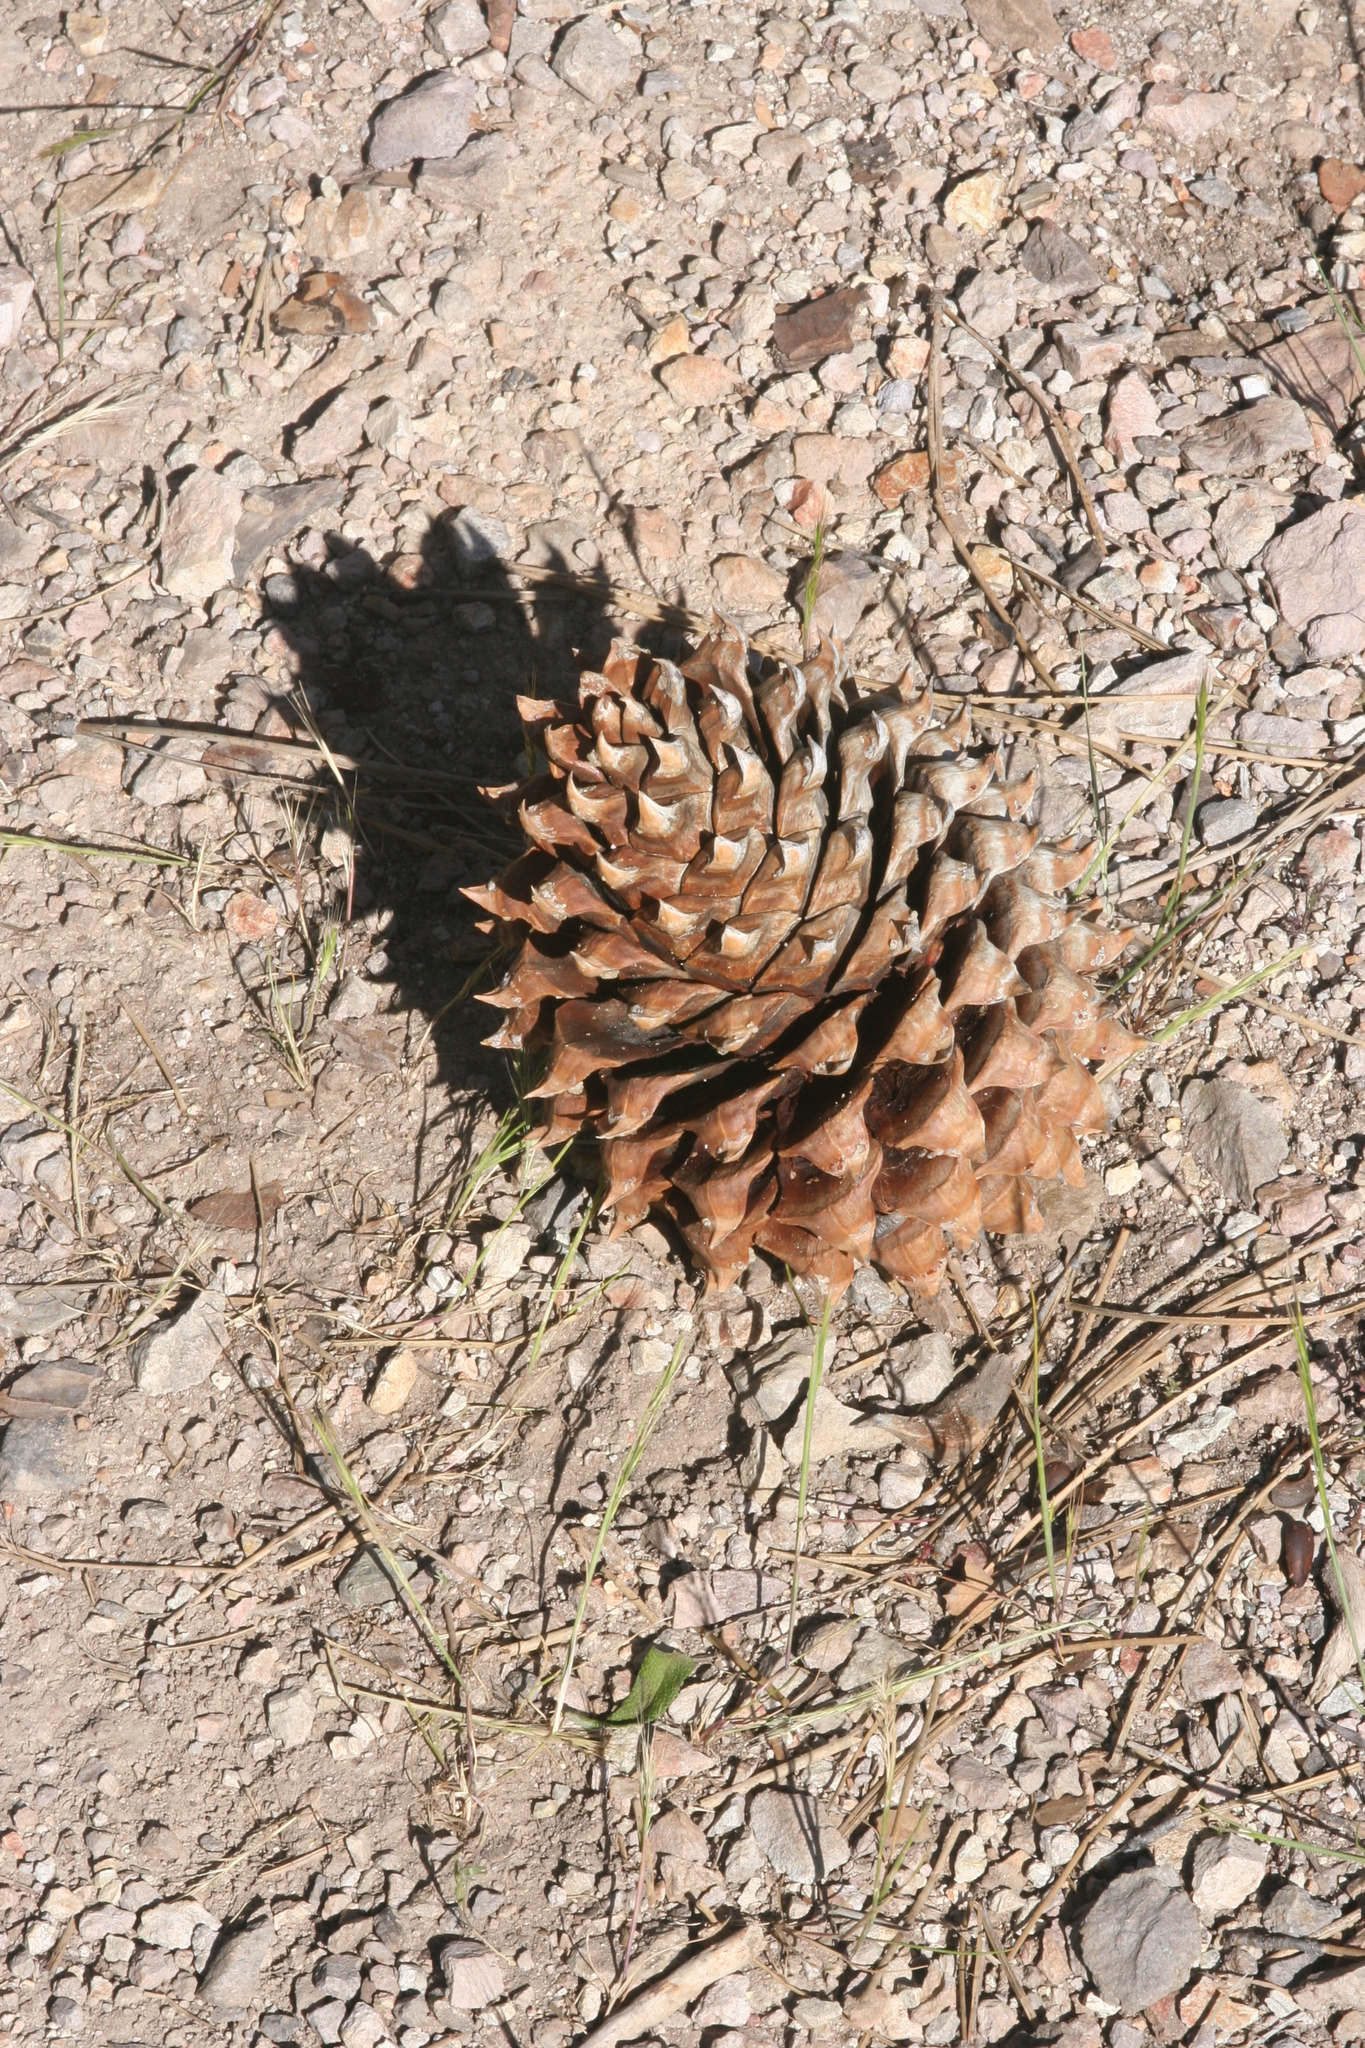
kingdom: Plantae
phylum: Tracheophyta
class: Pinopsida
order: Pinales
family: Pinaceae
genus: Pinus
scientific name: Pinus sabiniana
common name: Bull pine
